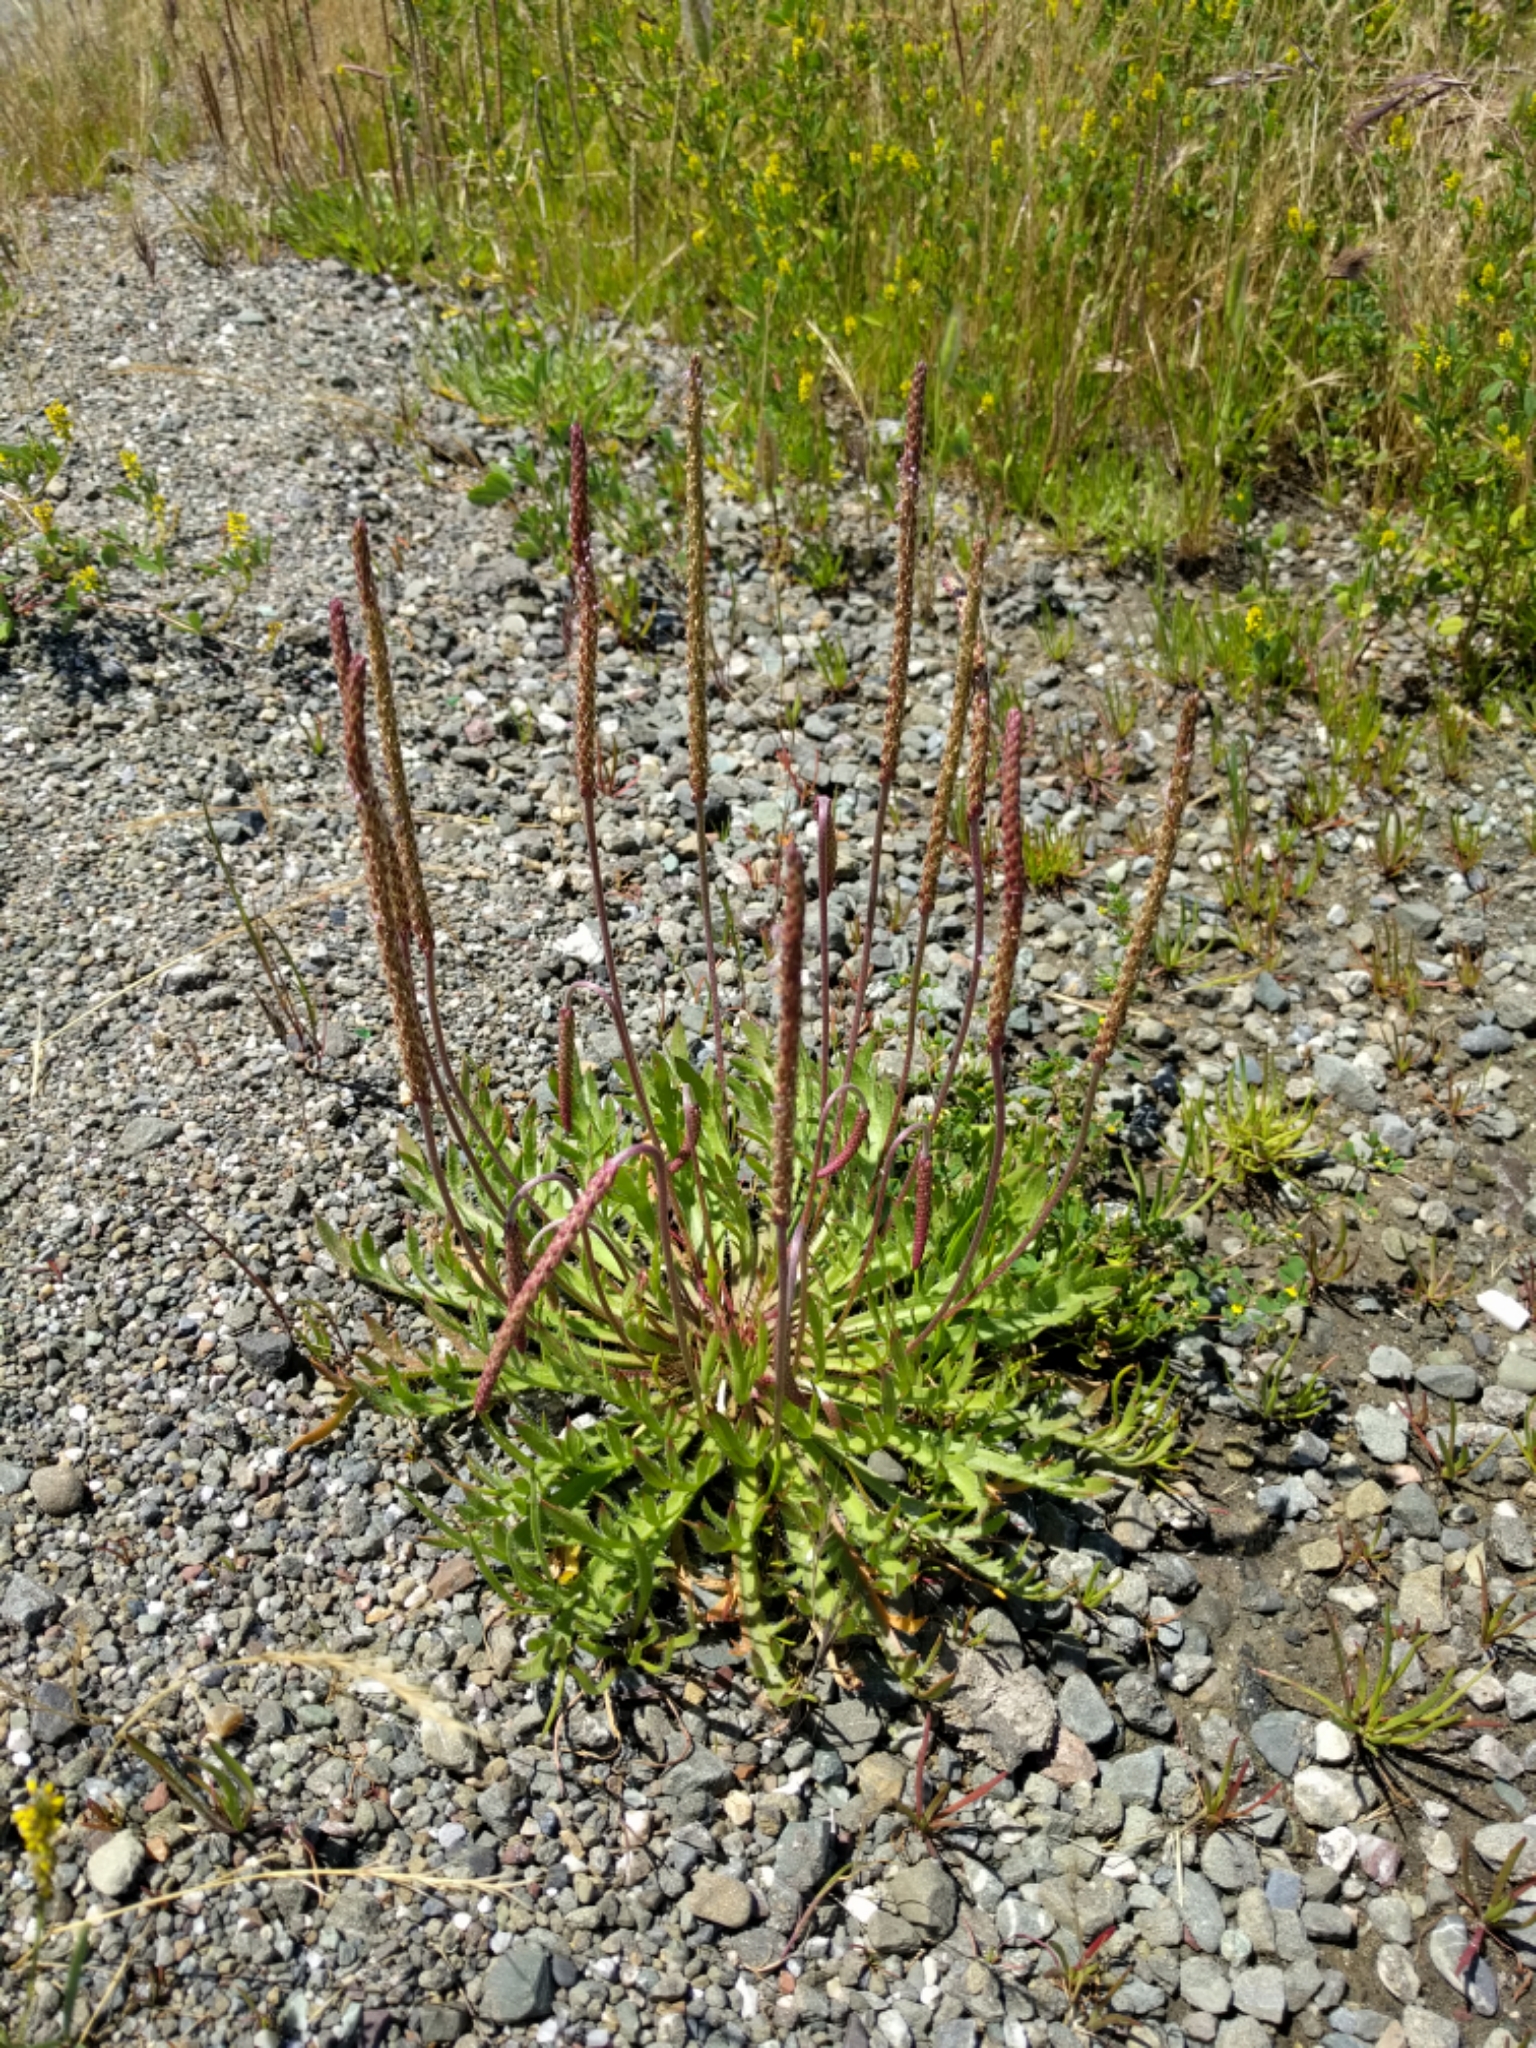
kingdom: Plantae
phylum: Tracheophyta
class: Magnoliopsida
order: Lamiales
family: Plantaginaceae
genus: Plantago
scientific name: Plantago coronopus
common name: Buck's-horn plantain
